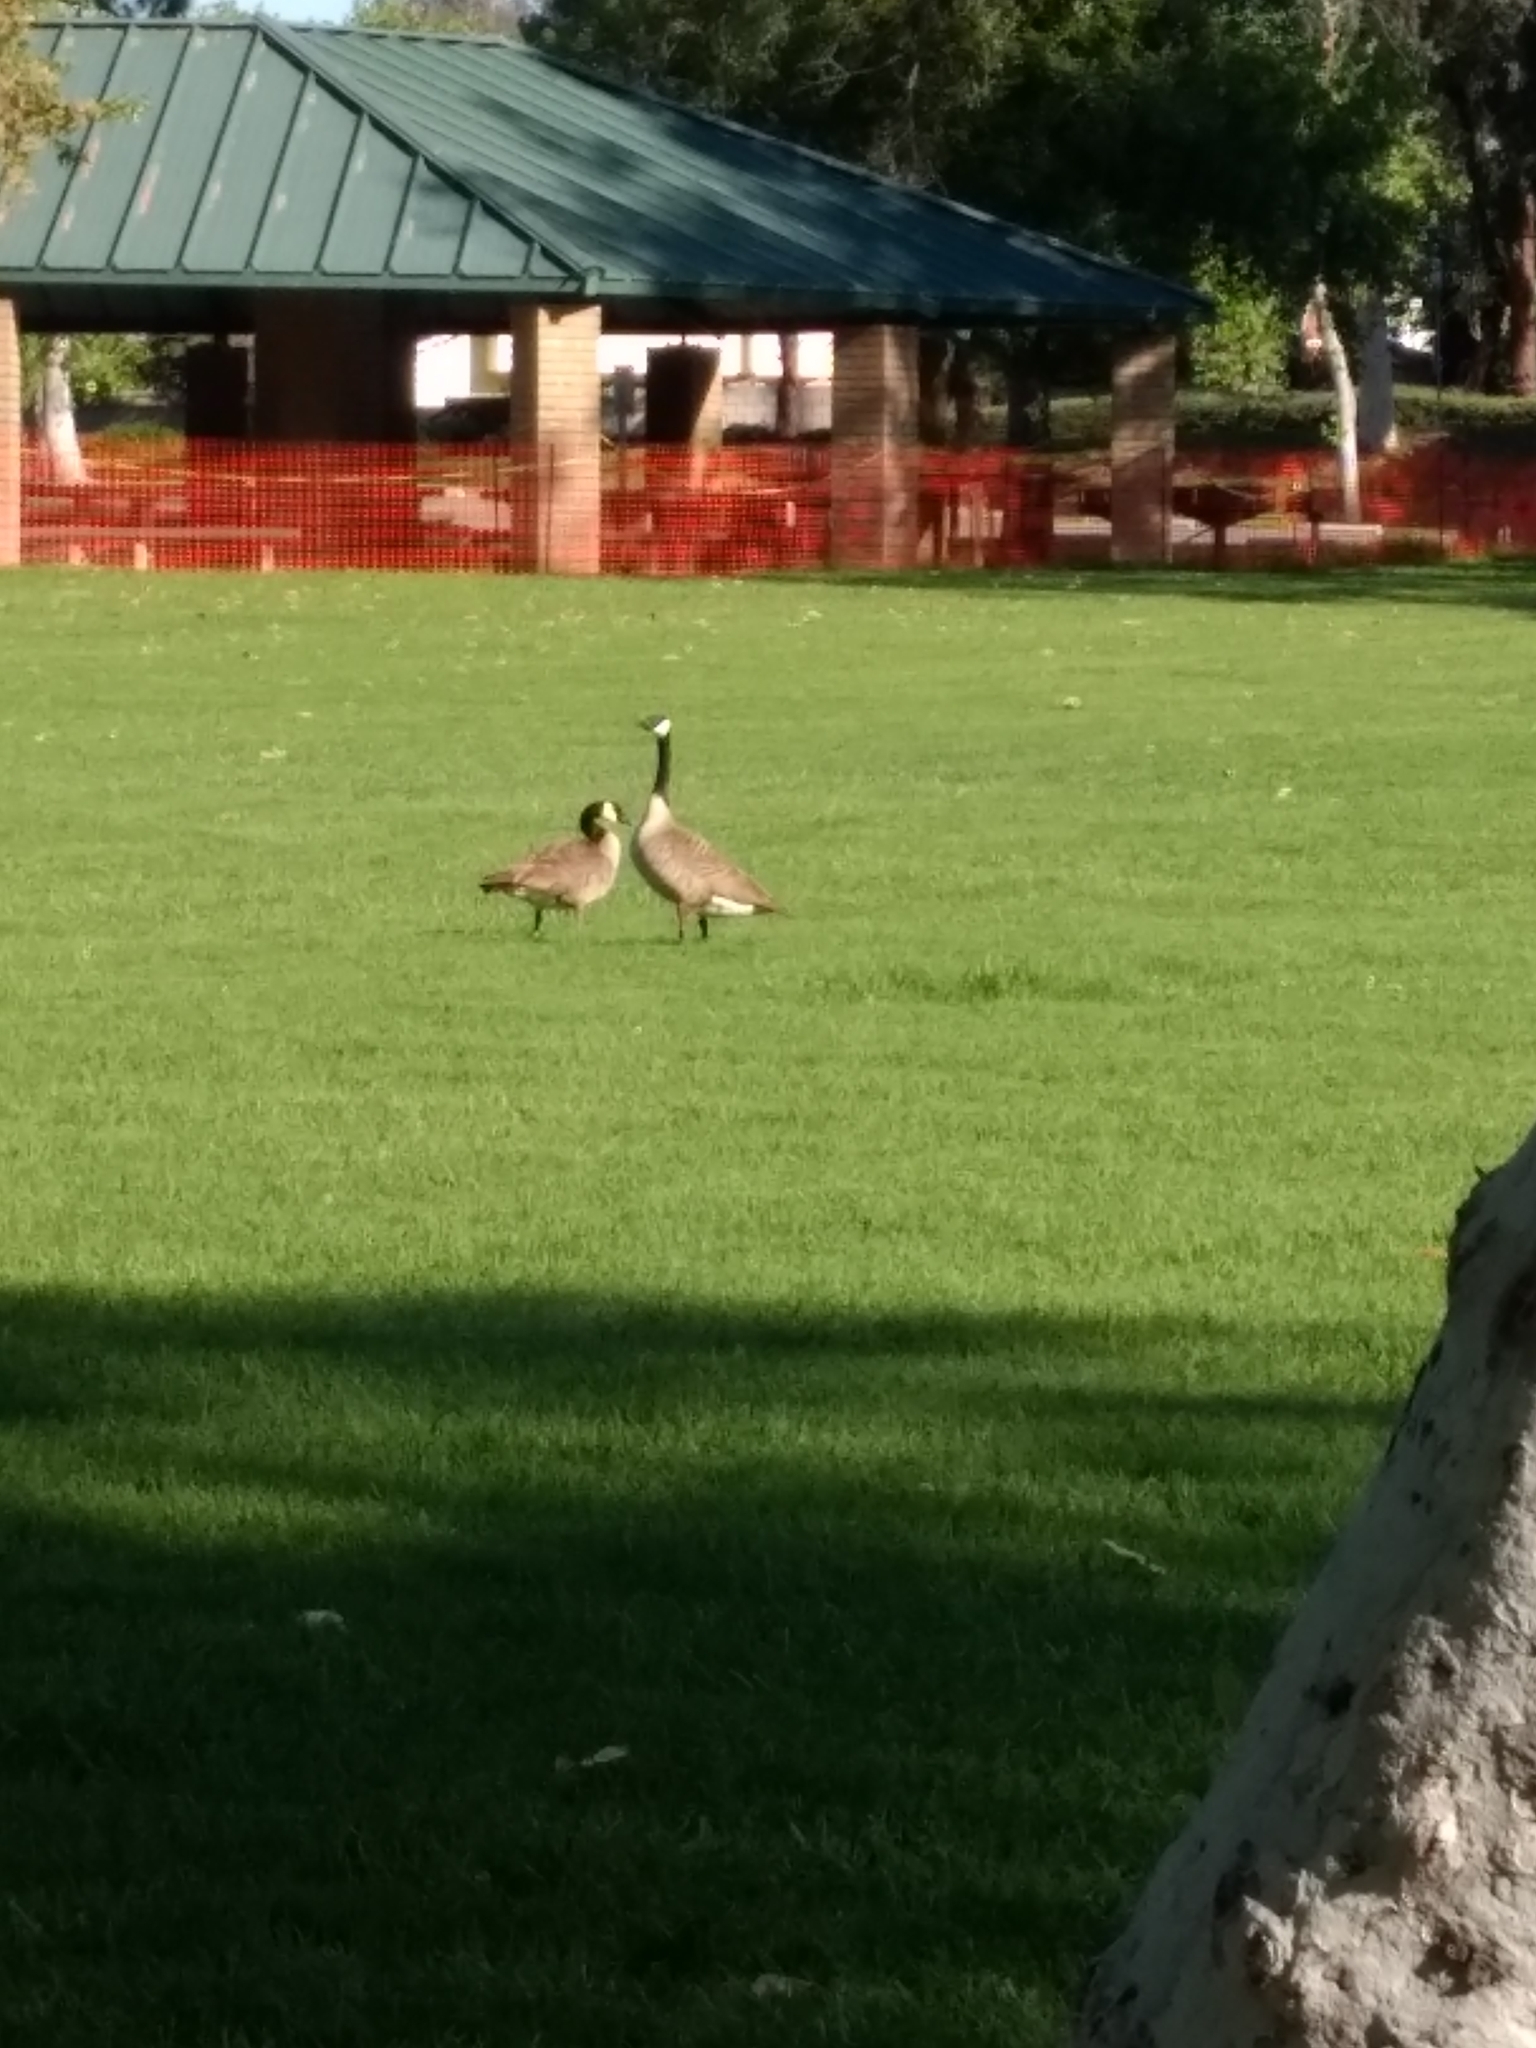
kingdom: Animalia
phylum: Chordata
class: Aves
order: Anseriformes
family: Anatidae
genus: Branta
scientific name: Branta canadensis
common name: Canada goose
